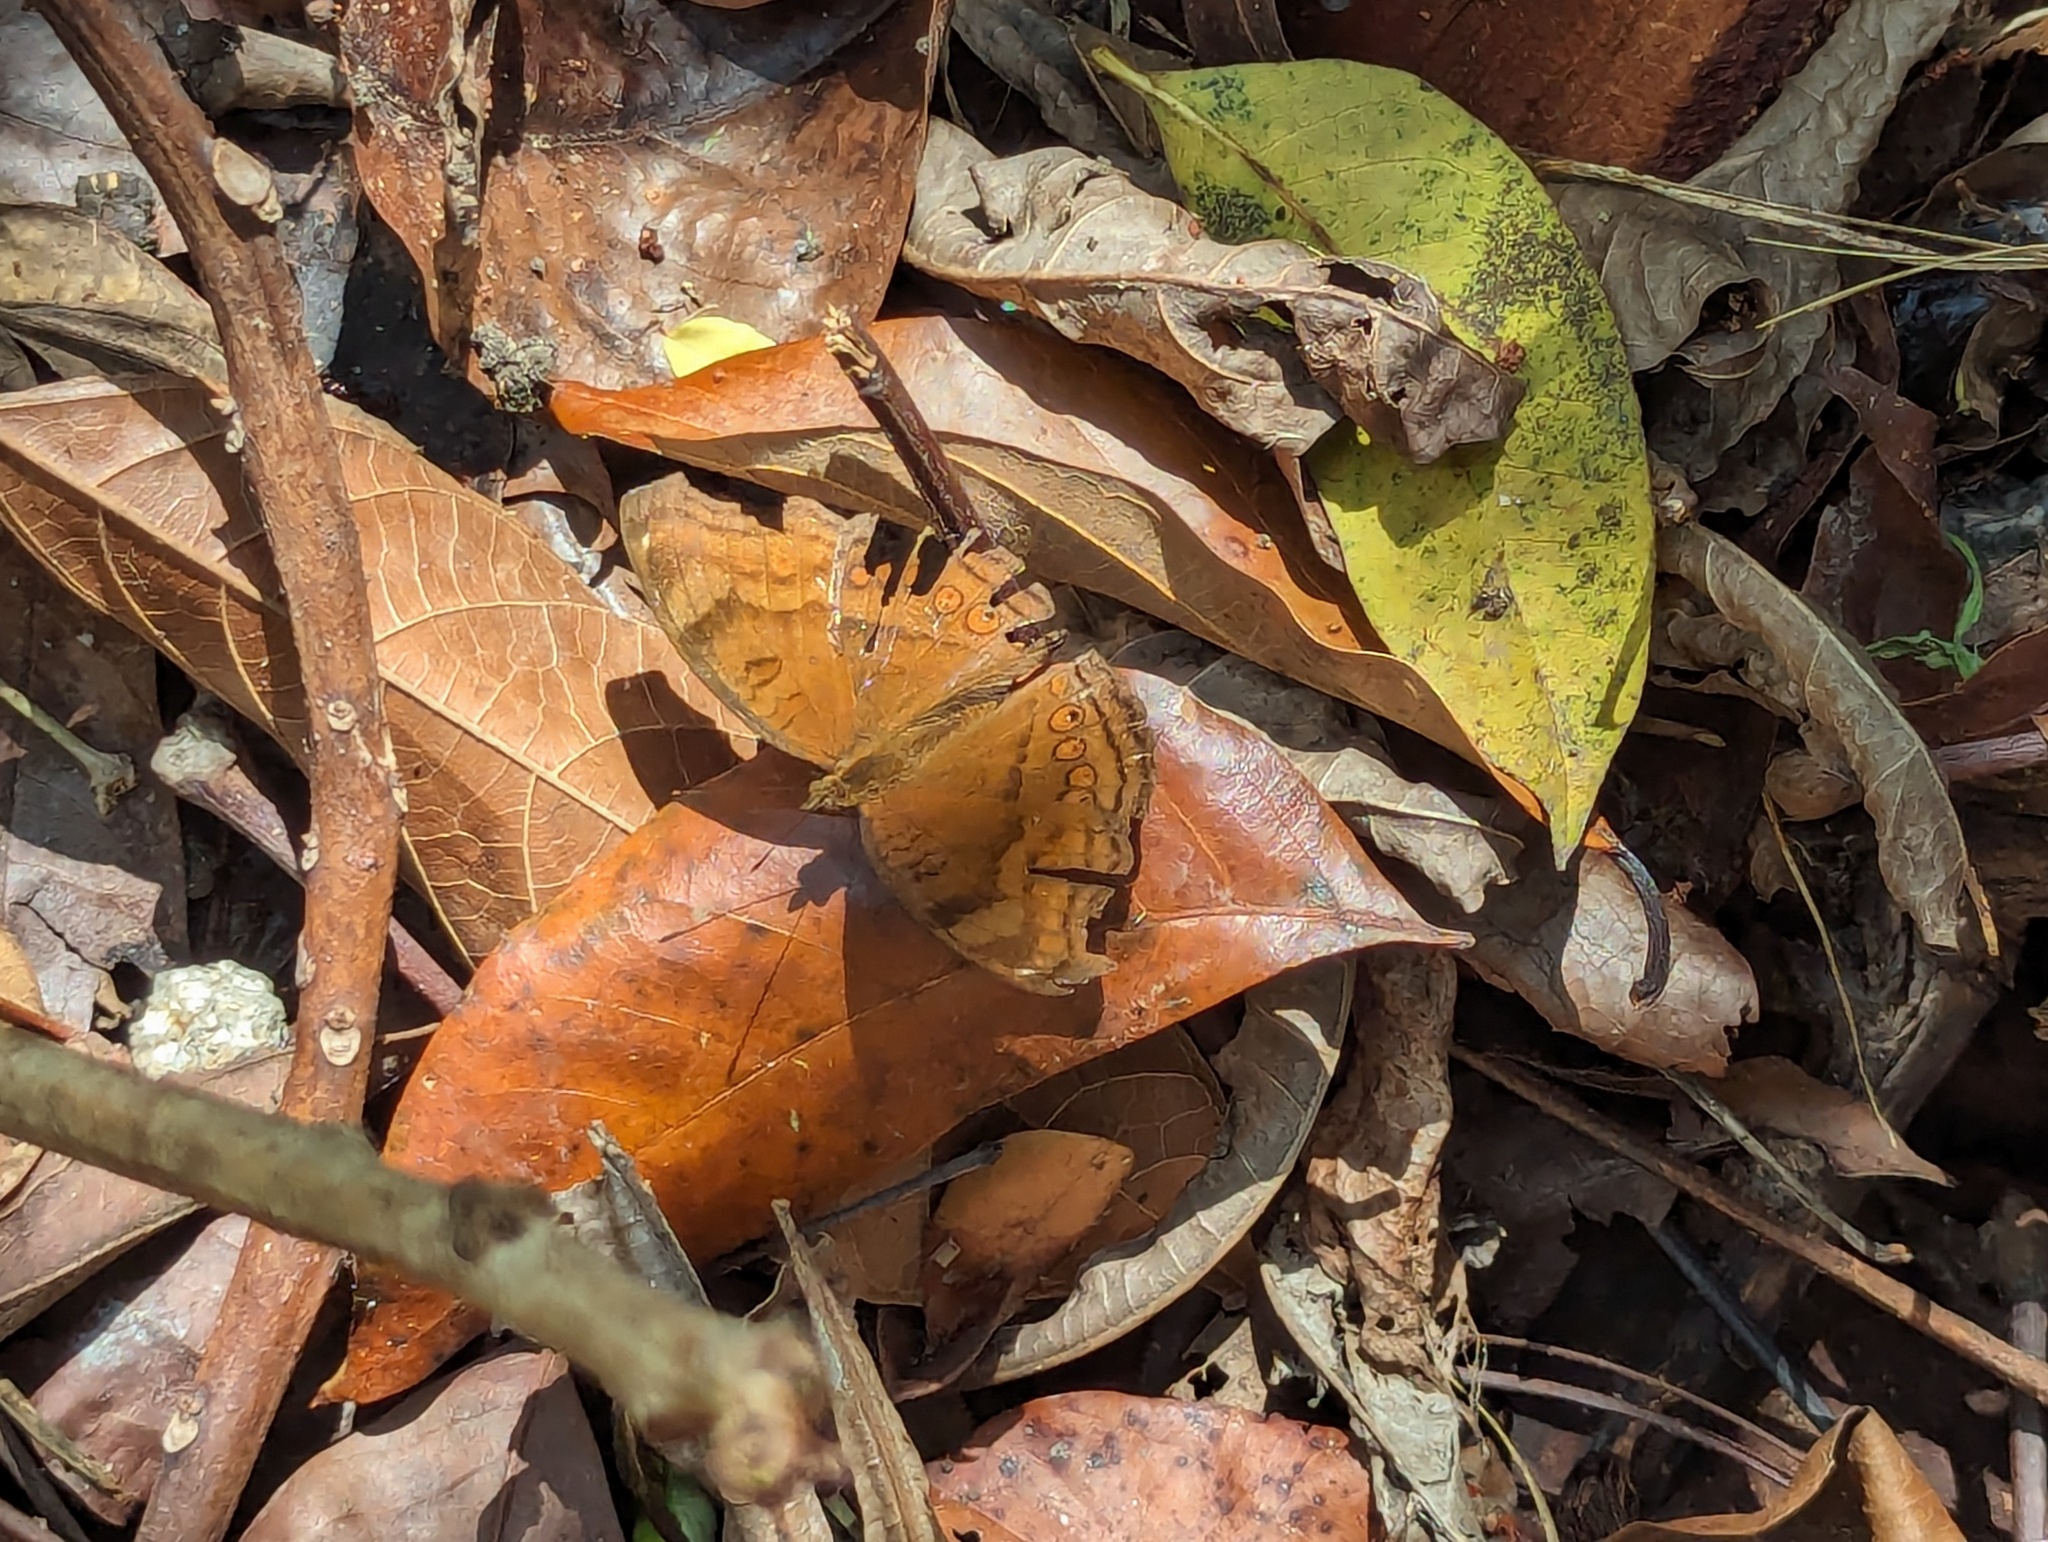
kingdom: Animalia
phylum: Arthropoda
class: Insecta
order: Lepidoptera
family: Nymphalidae
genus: Junonia
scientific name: Junonia hedonia
